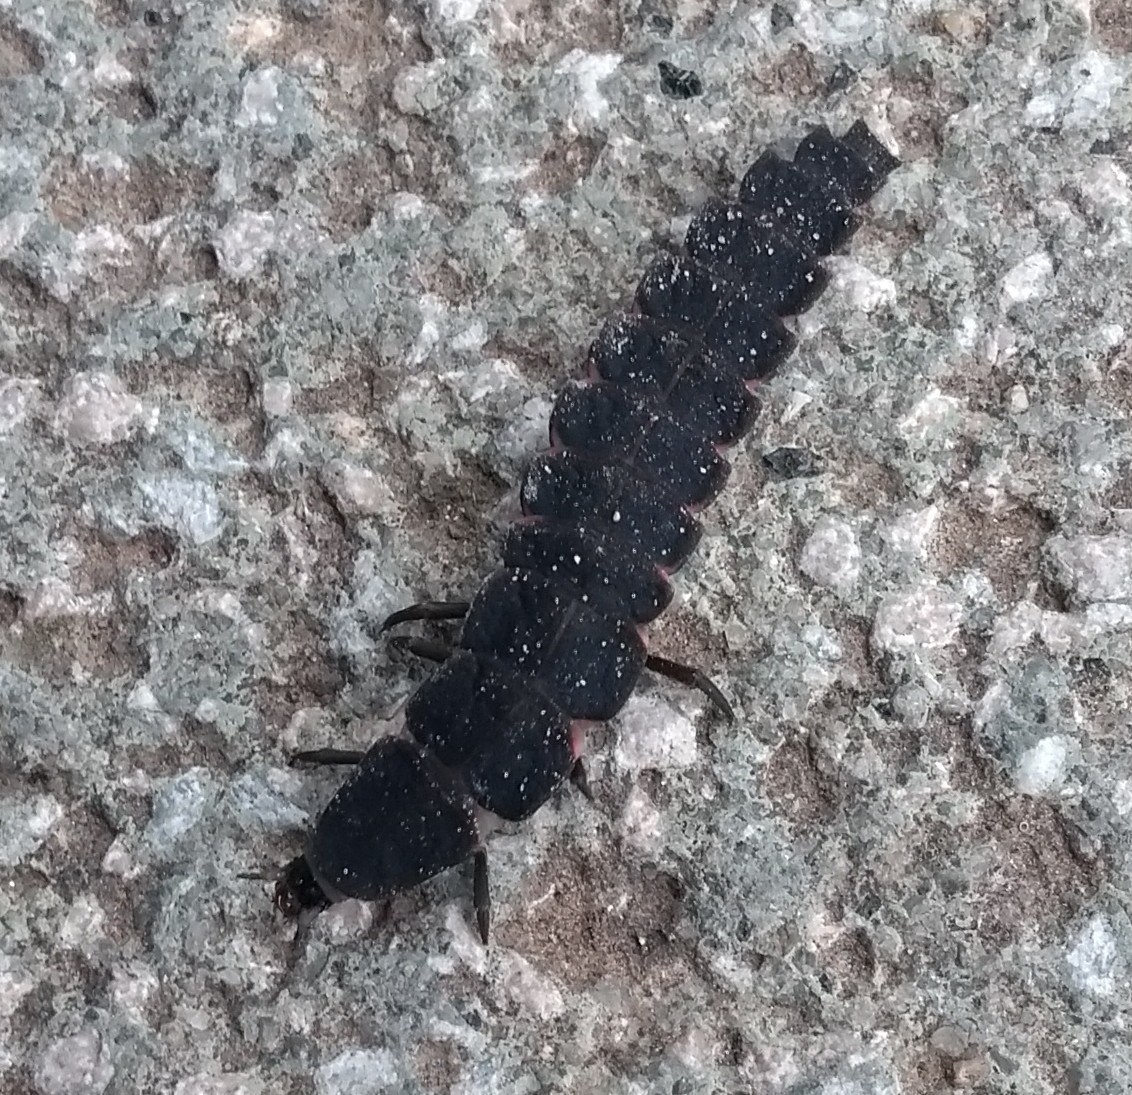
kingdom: Animalia
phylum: Arthropoda
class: Insecta
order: Coleoptera
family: Lampyridae
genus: Nyctophila
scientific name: Nyctophila reichii
